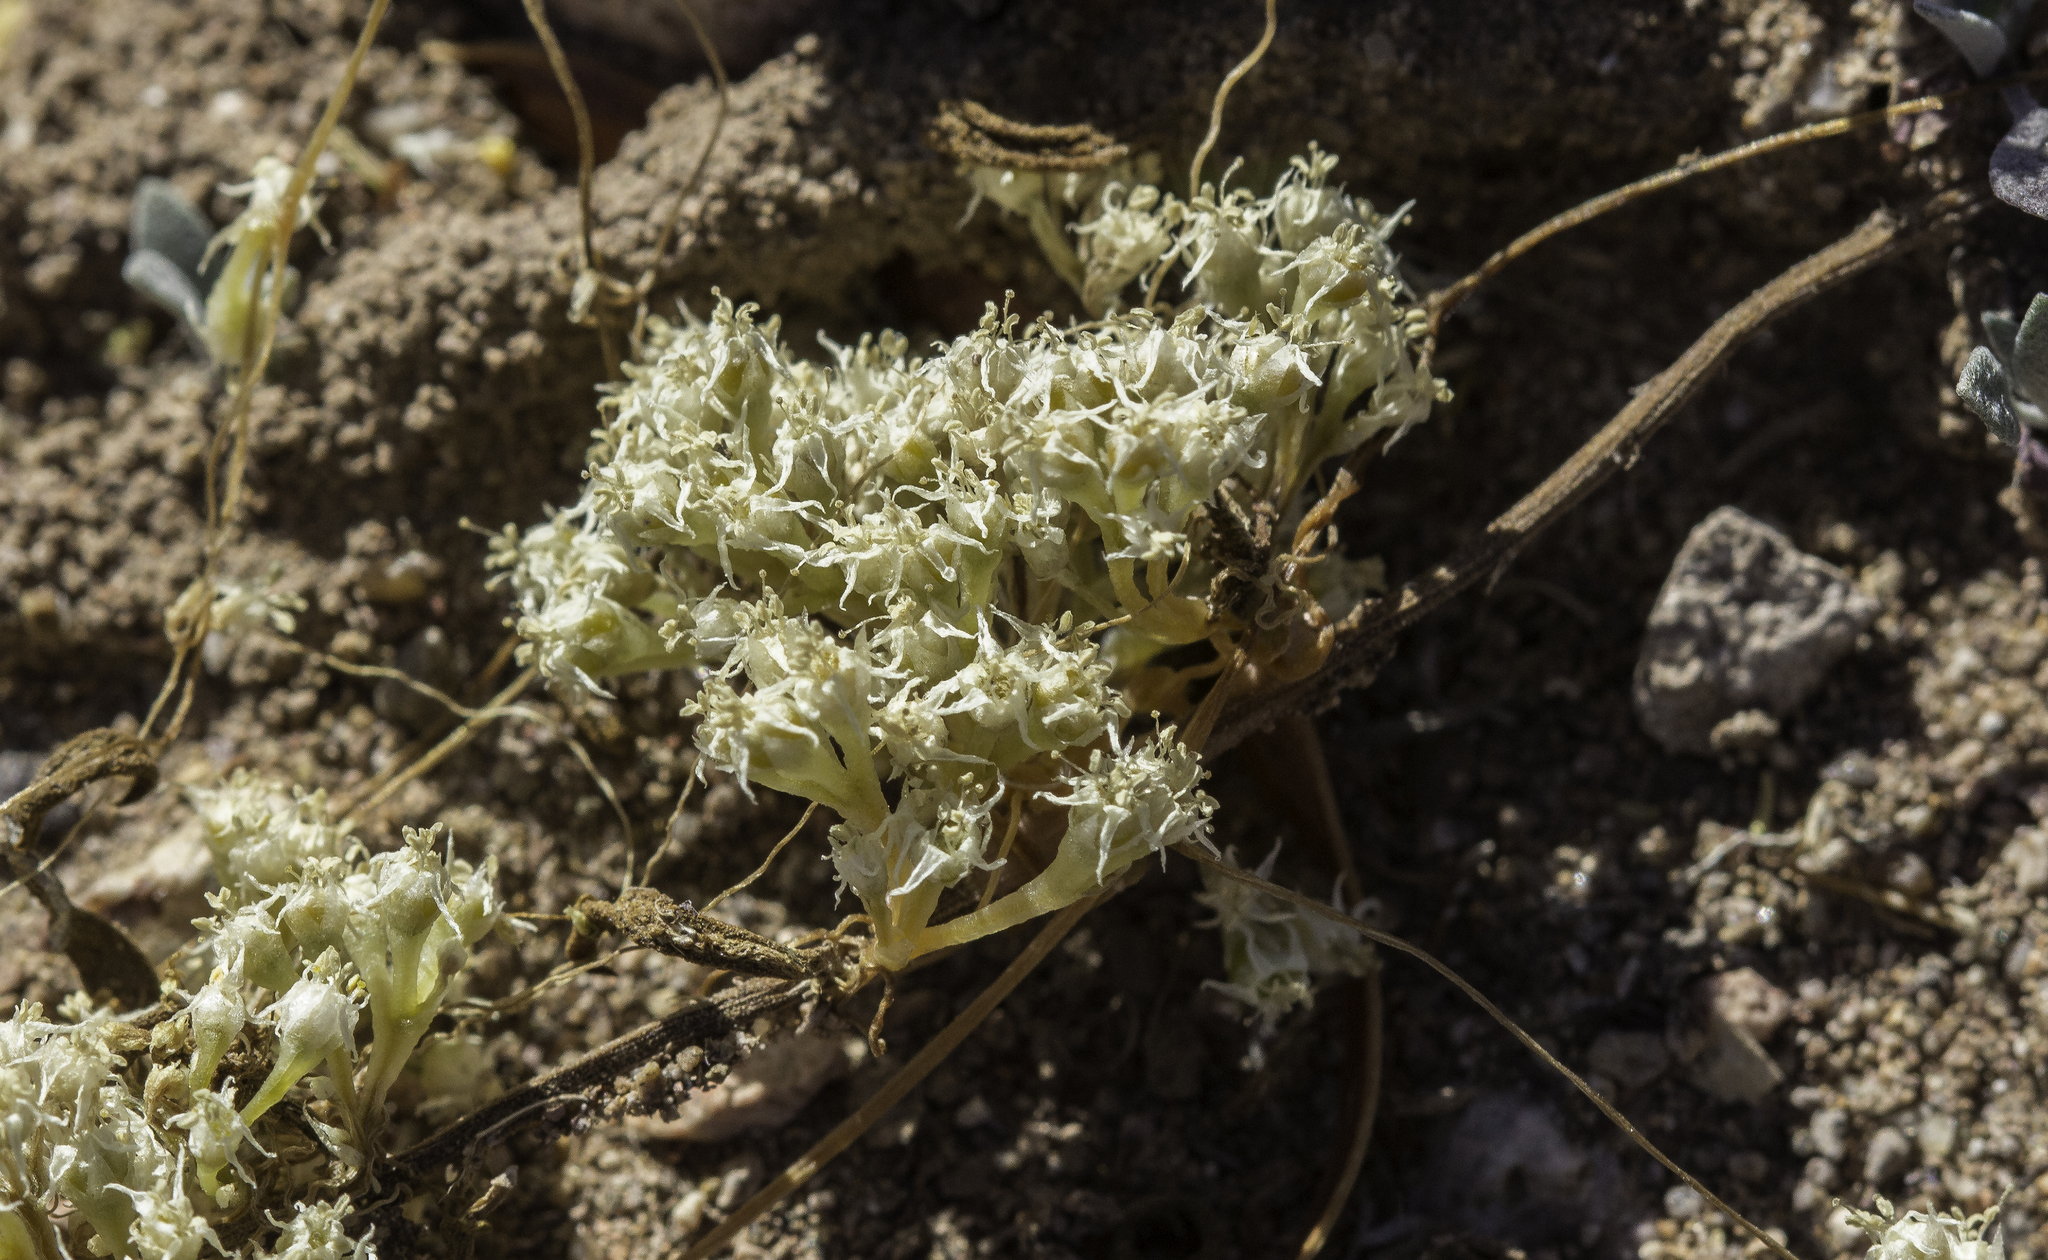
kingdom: Plantae
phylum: Tracheophyta
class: Magnoliopsida
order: Solanales
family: Convolvulaceae
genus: Cuscuta
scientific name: Cuscuta umbellata
